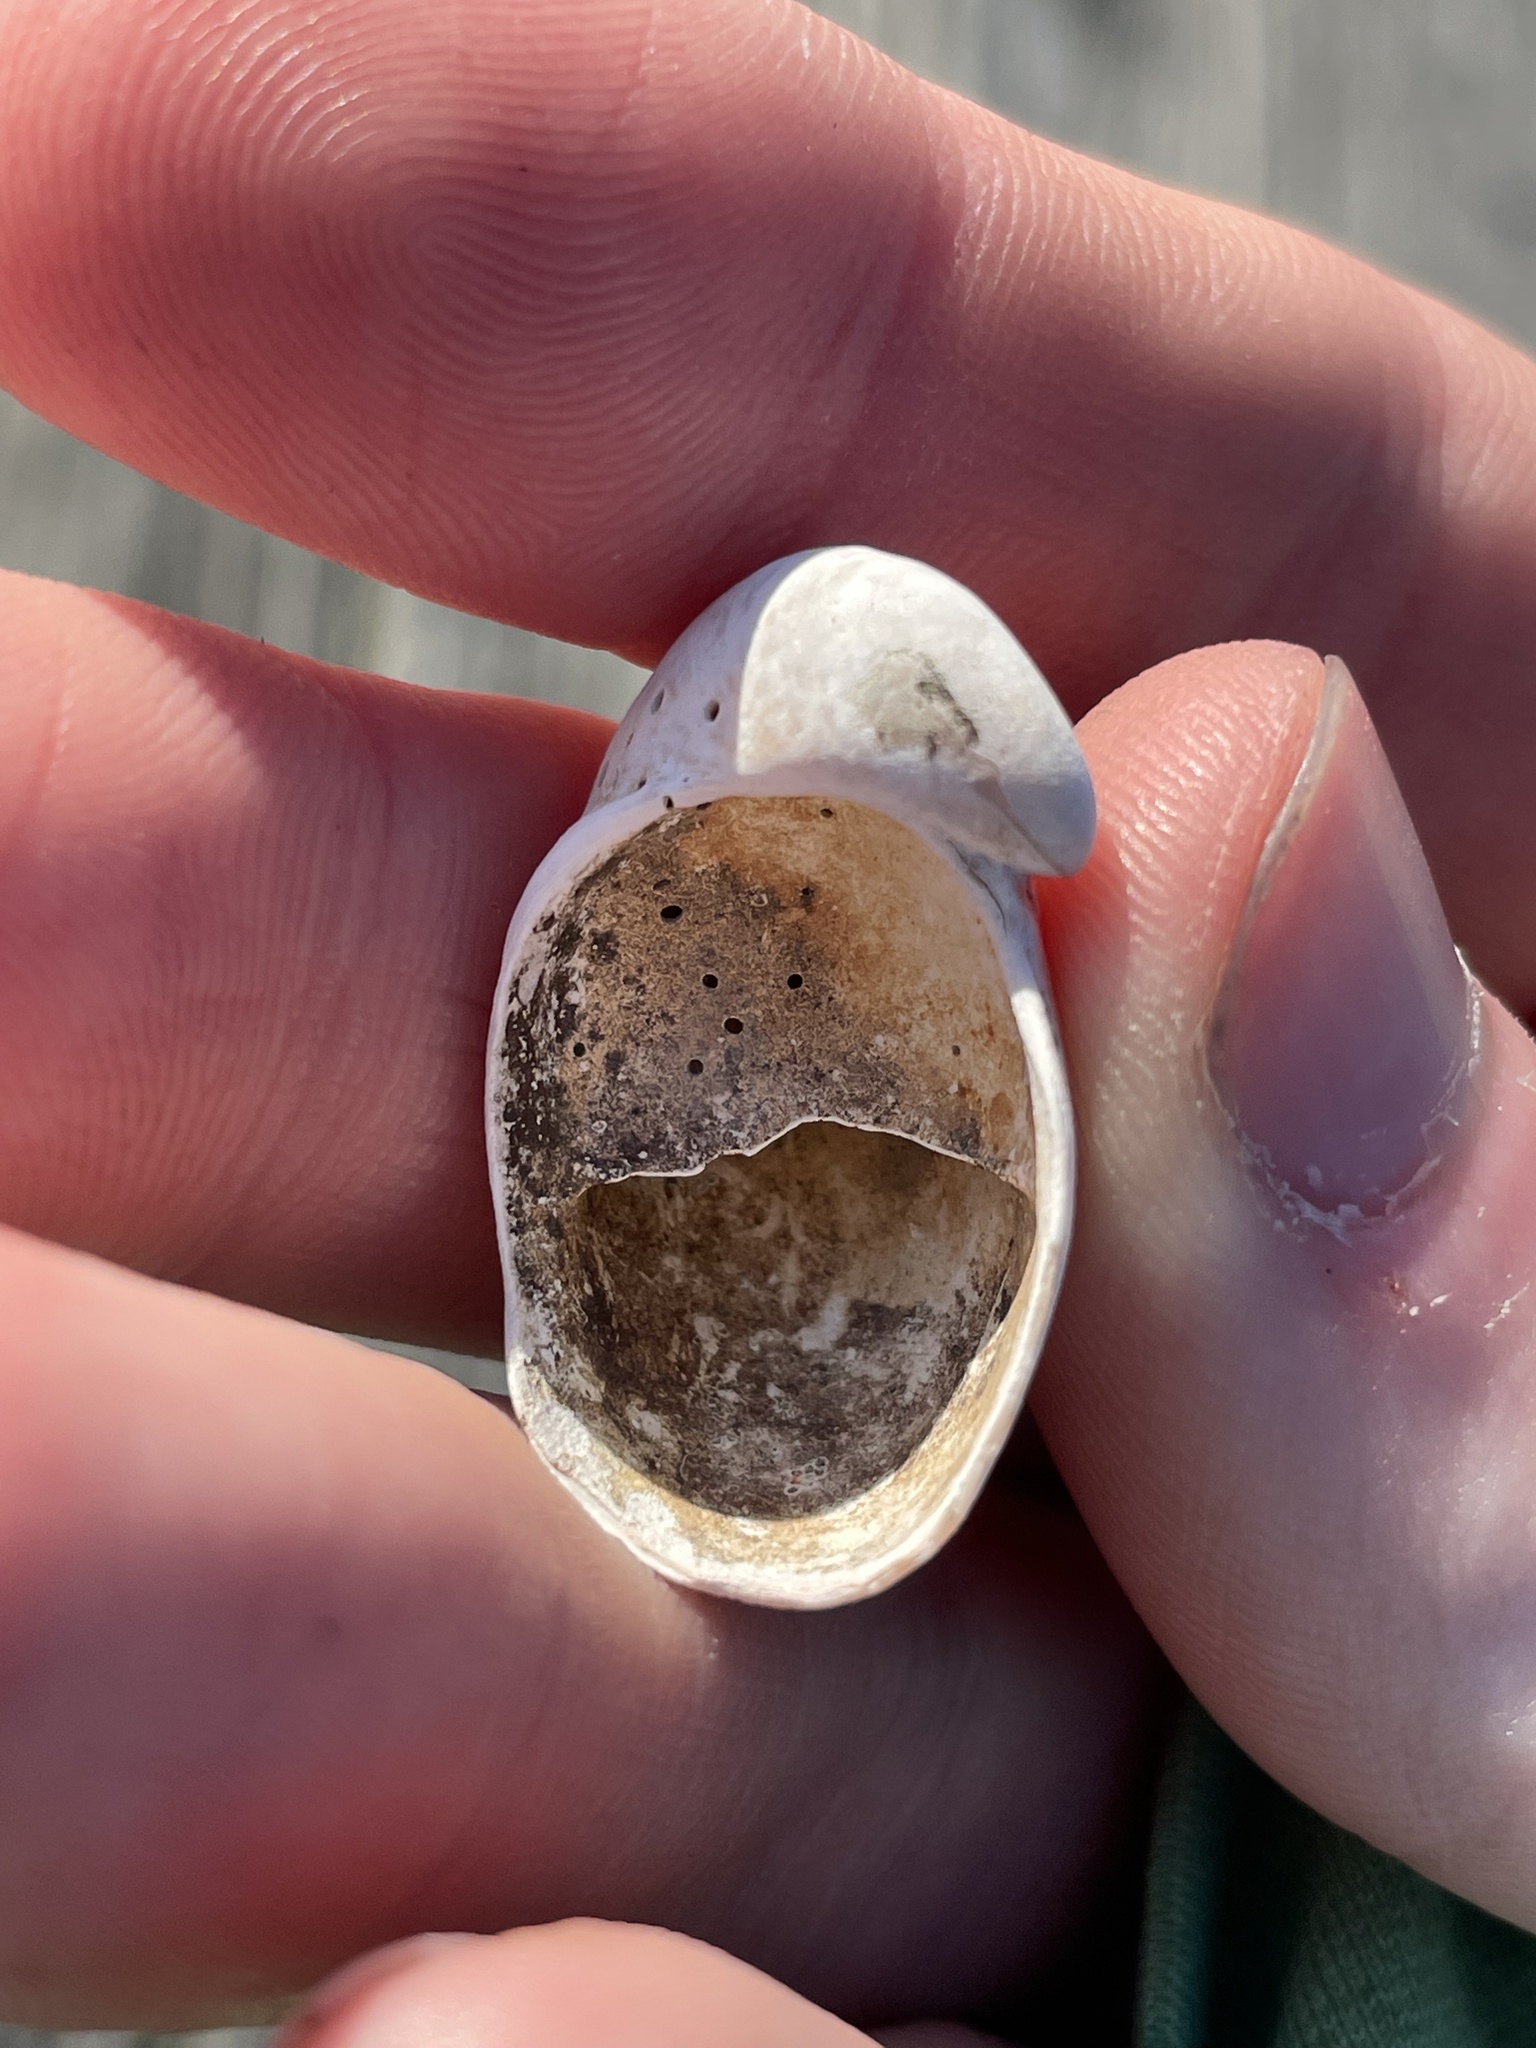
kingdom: Animalia
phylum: Mollusca
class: Gastropoda
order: Littorinimorpha
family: Calyptraeidae
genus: Crepidula
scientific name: Crepidula fornicata
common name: Slipper limpet
